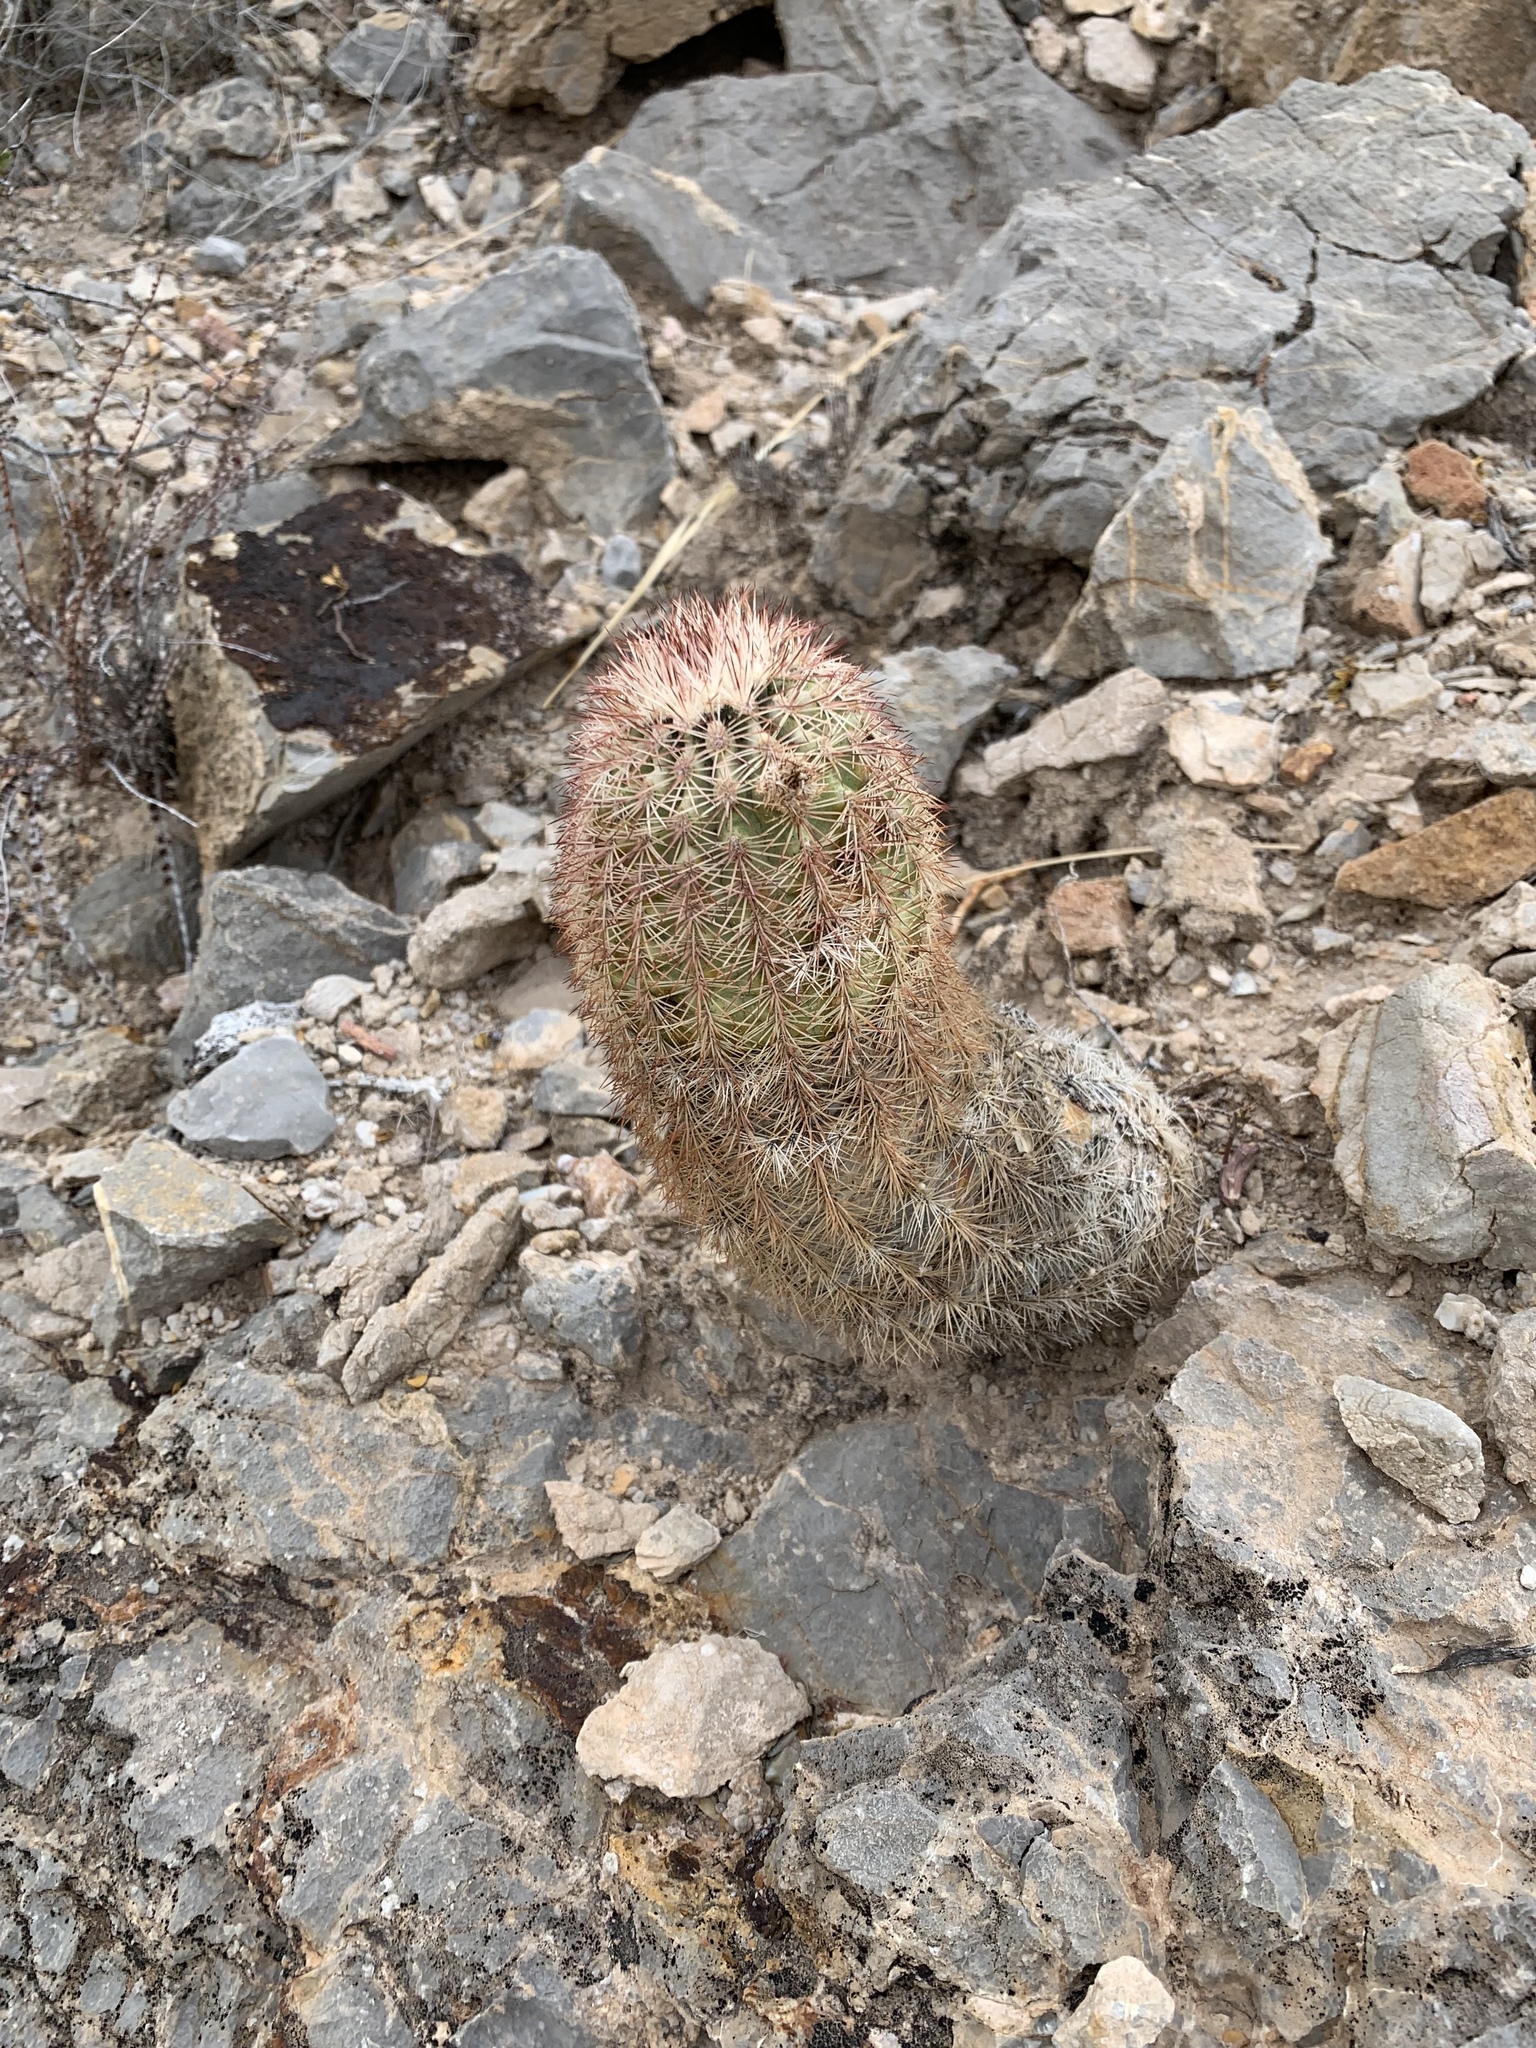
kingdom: Plantae
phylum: Tracheophyta
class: Magnoliopsida
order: Caryophyllales
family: Cactaceae
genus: Echinocereus
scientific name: Echinocereus dasyacanthus
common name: Spiny hedgehog cactus
